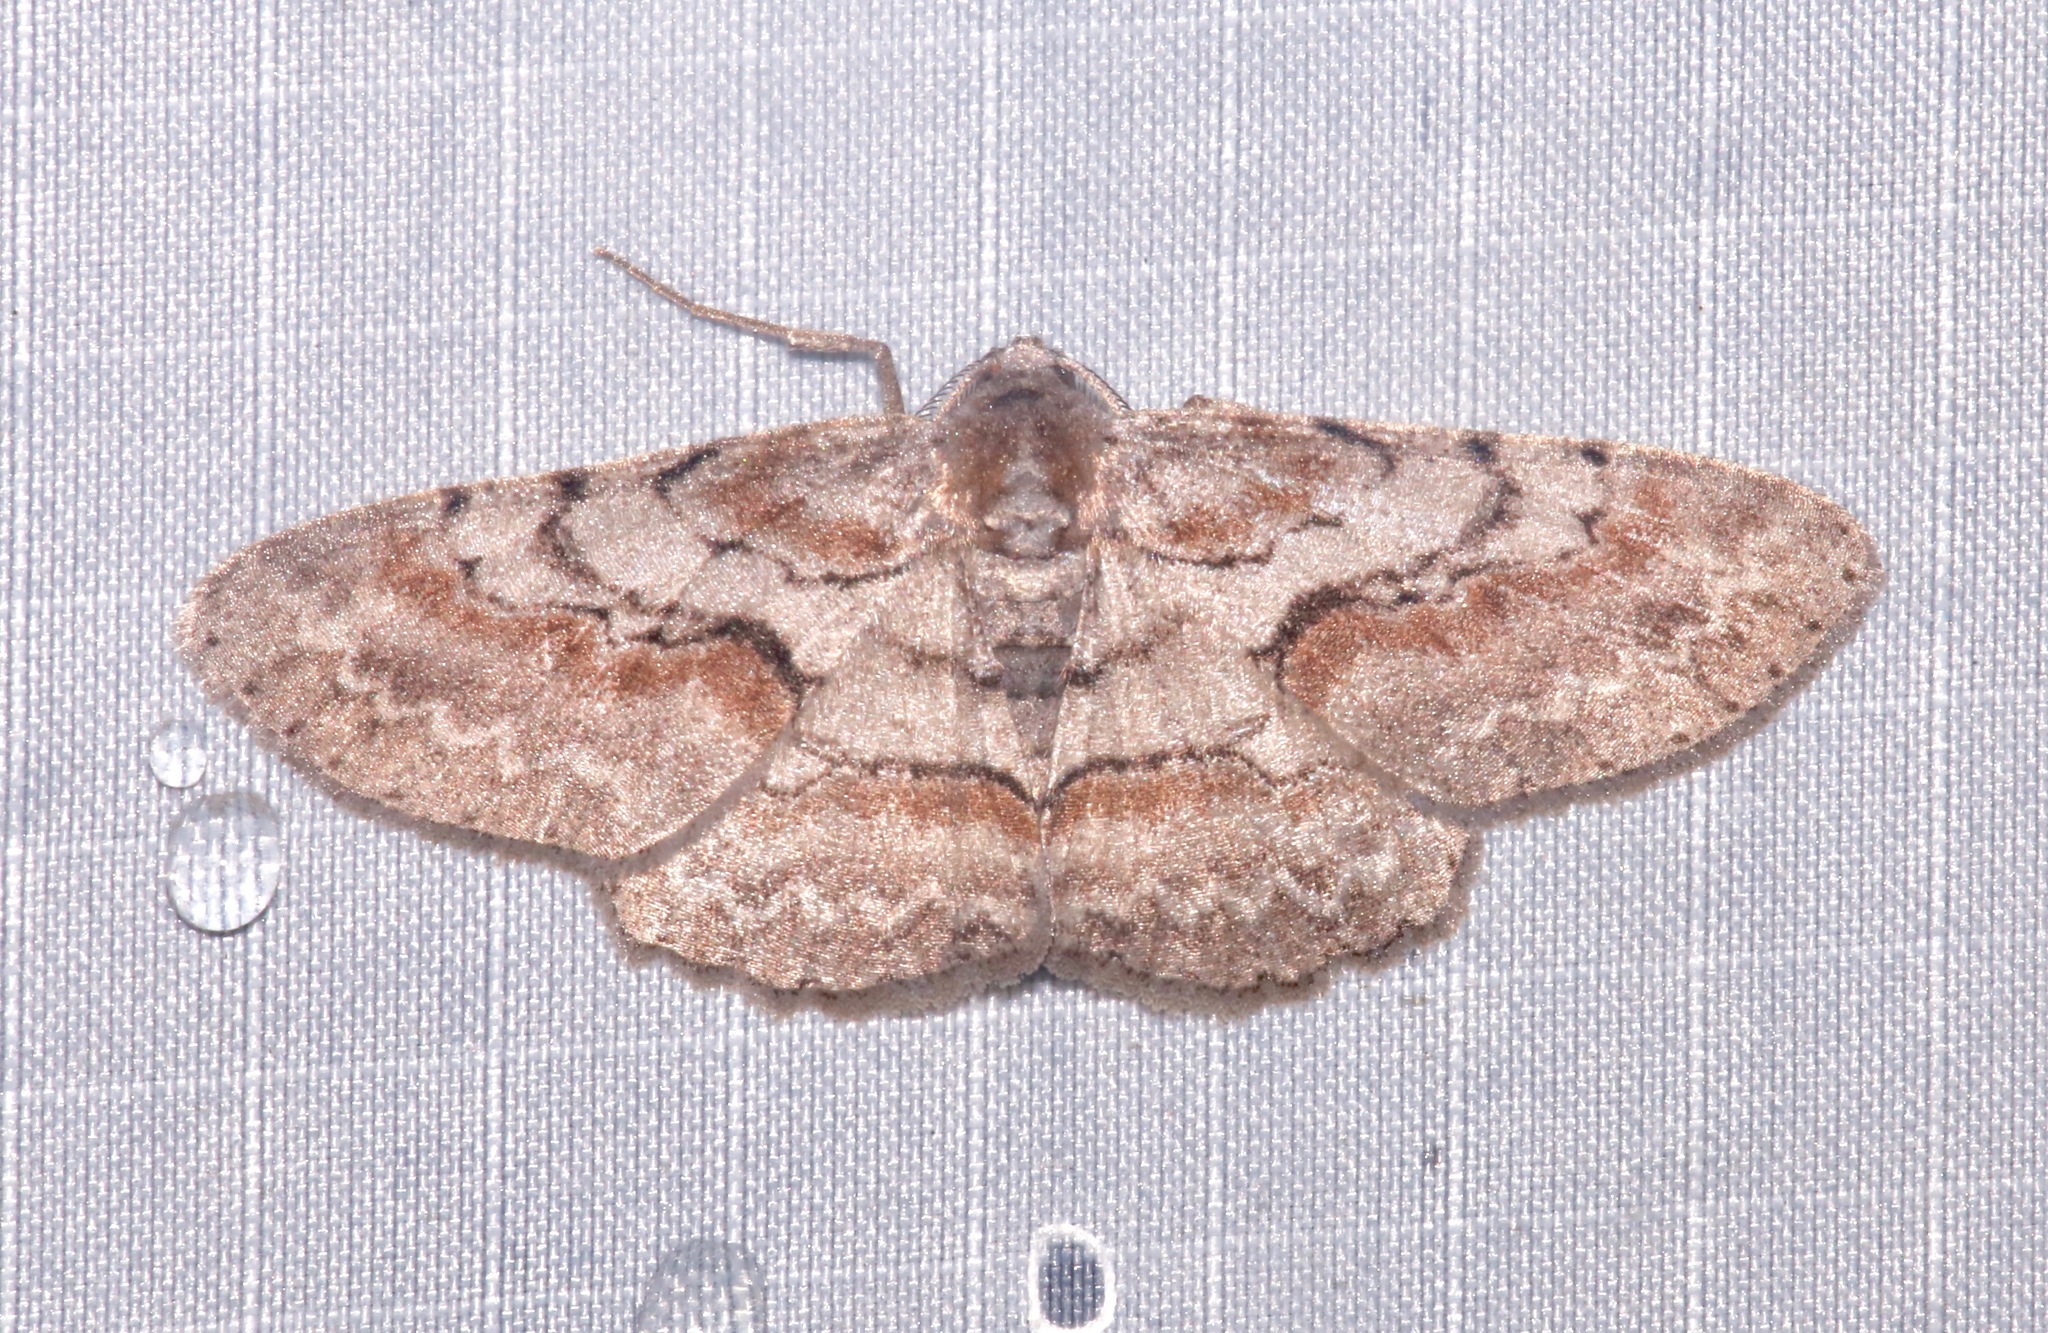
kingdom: Animalia
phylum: Arthropoda
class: Insecta
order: Lepidoptera
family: Geometridae
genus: Iridopsis
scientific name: Iridopsis vellivolata
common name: Large purplish gray
